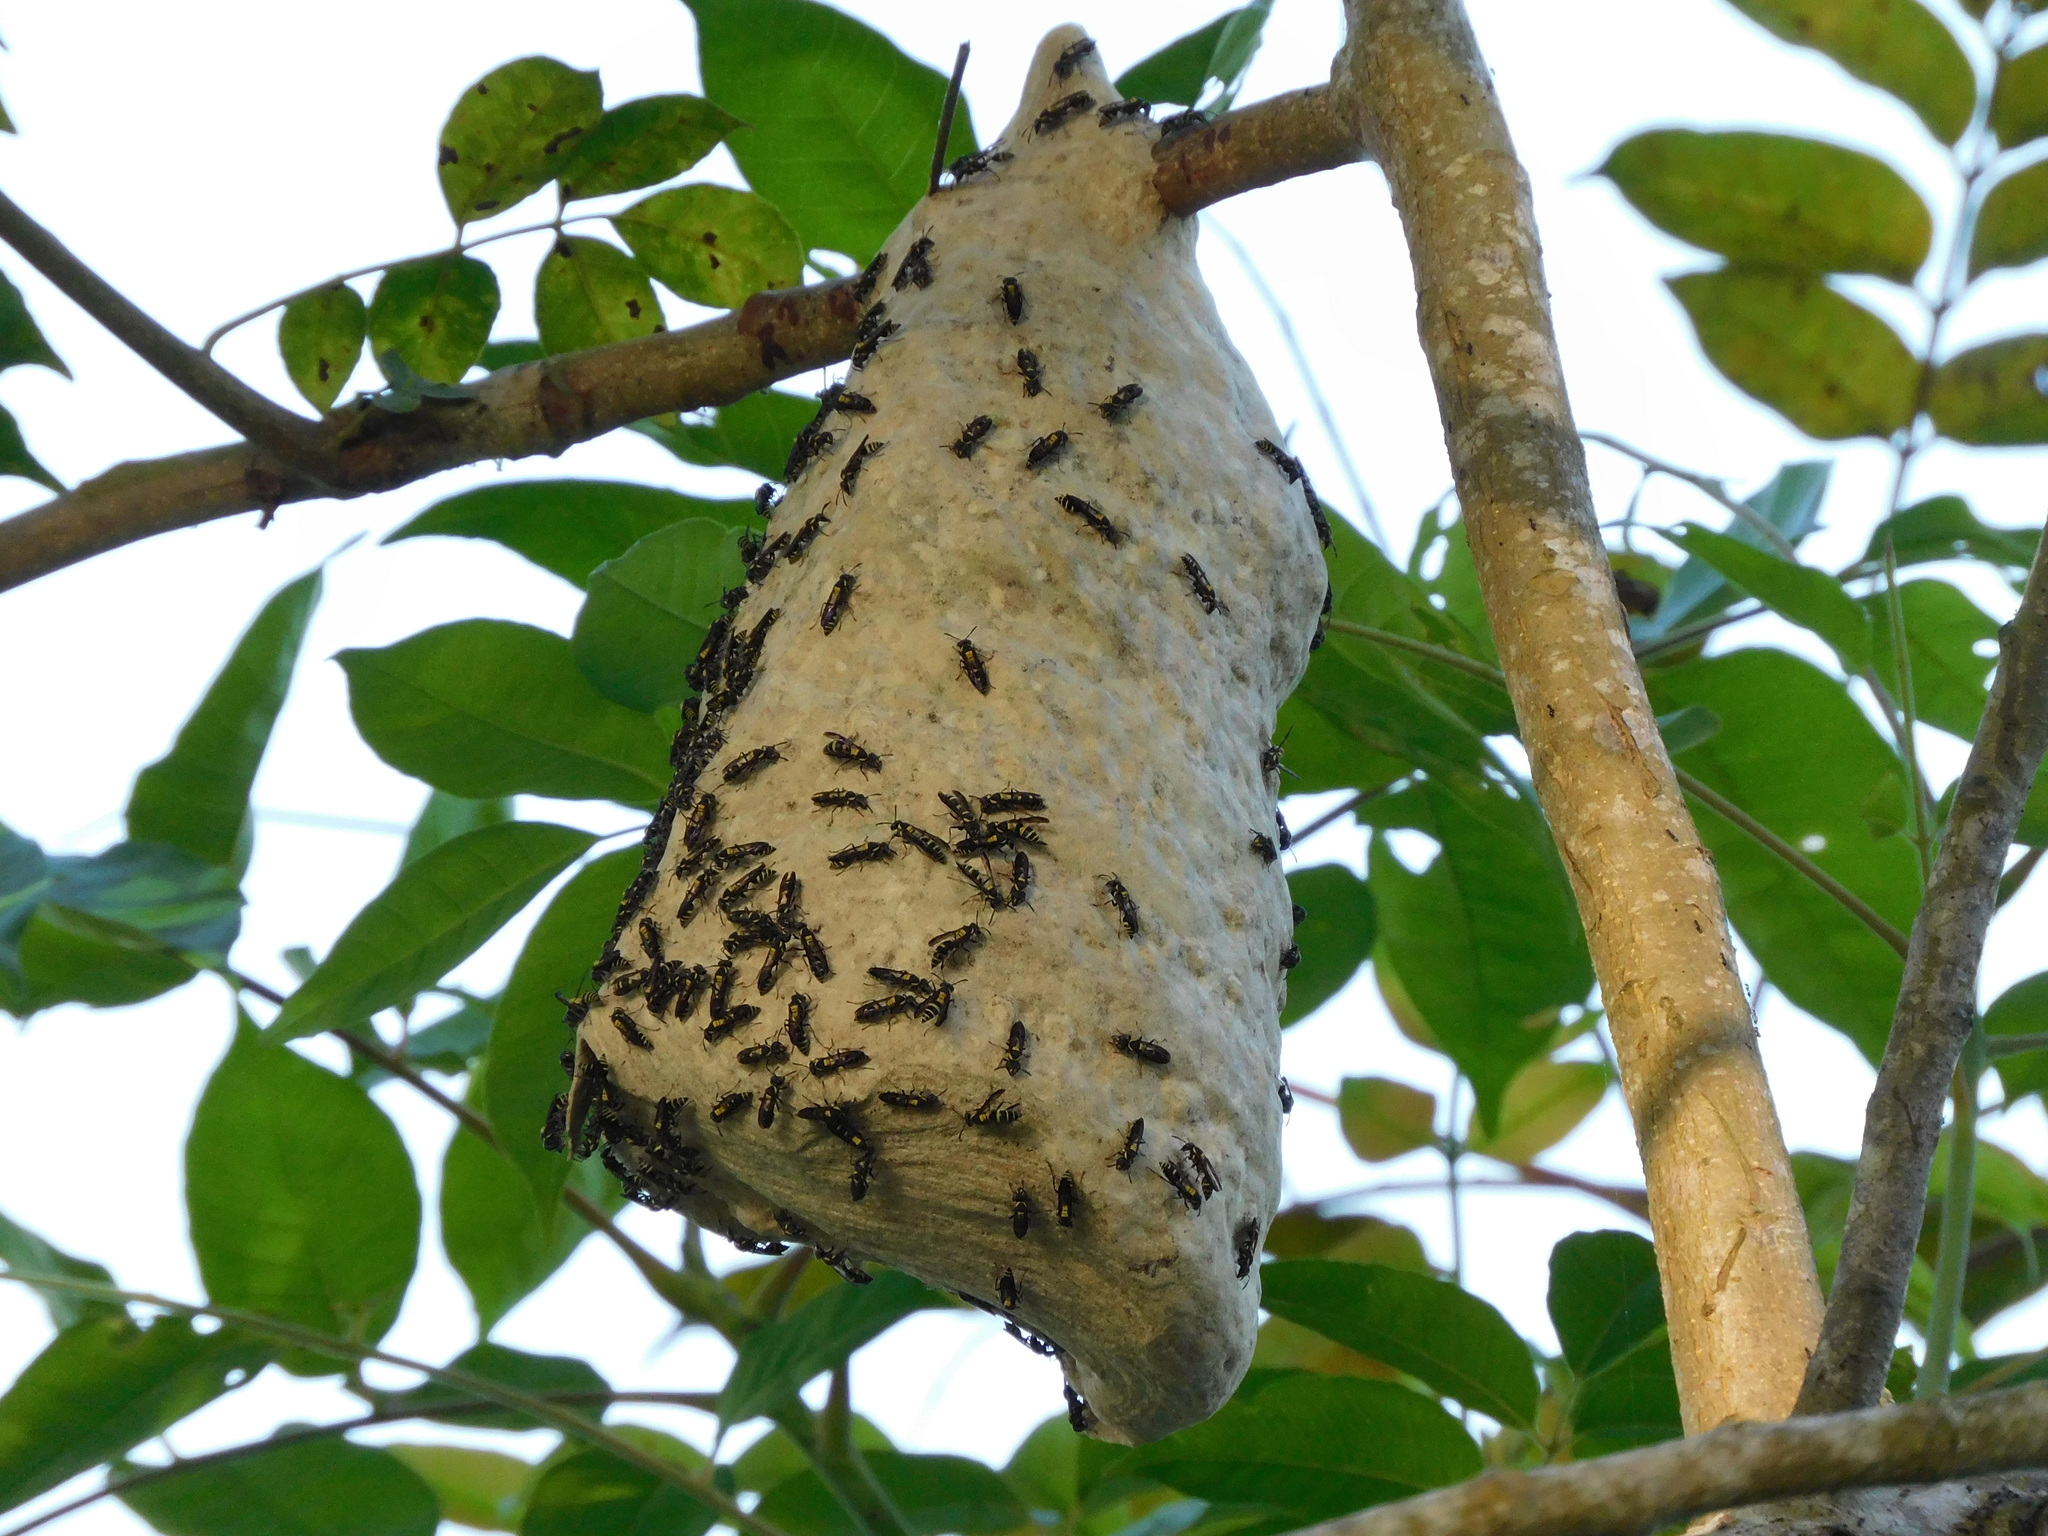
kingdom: Animalia
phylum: Arthropoda
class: Insecta
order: Hymenoptera
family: Eumenidae
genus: Polybia
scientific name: Polybia occidentalis
